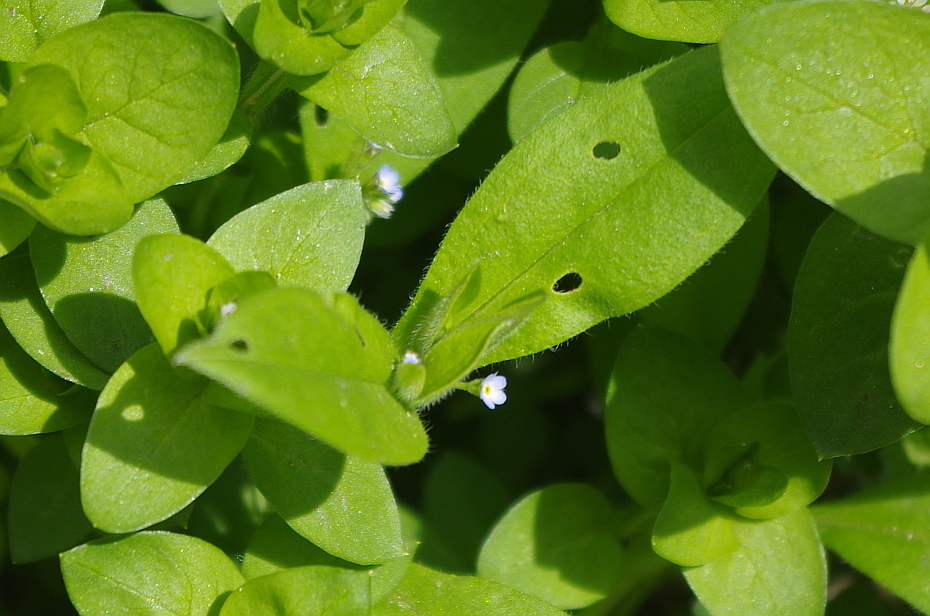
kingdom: Plantae
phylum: Tracheophyta
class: Magnoliopsida
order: Boraginales
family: Boraginaceae
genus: Myosotis
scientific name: Myosotis sparsiflora
